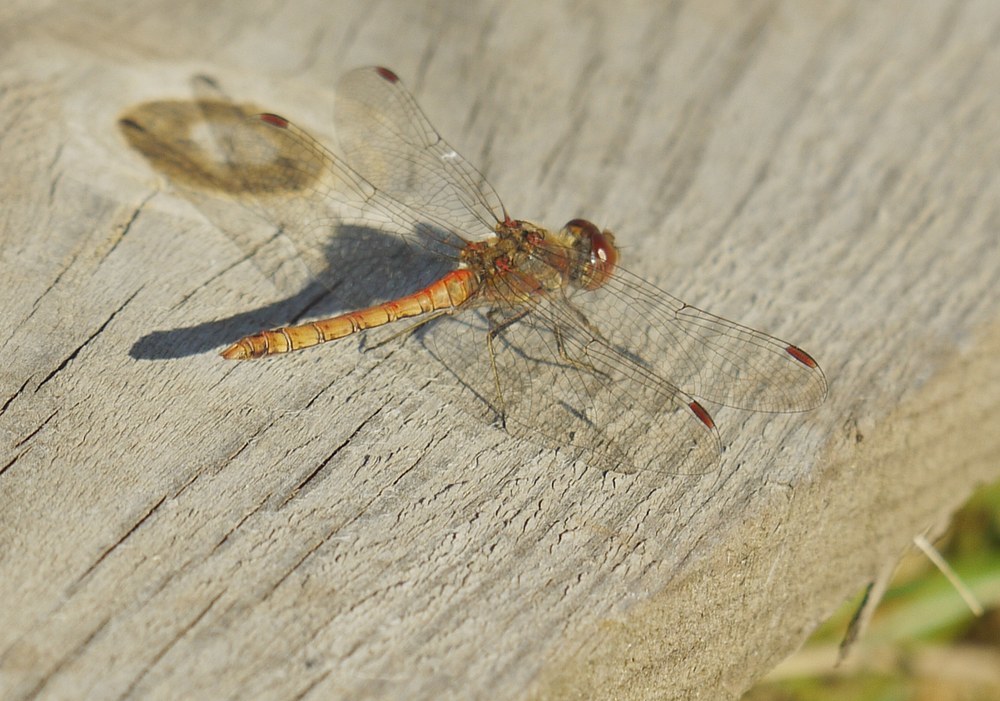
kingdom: Animalia
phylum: Arthropoda
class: Insecta
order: Odonata
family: Libellulidae
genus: Sympetrum
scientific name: Sympetrum striolatum
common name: Common darter
